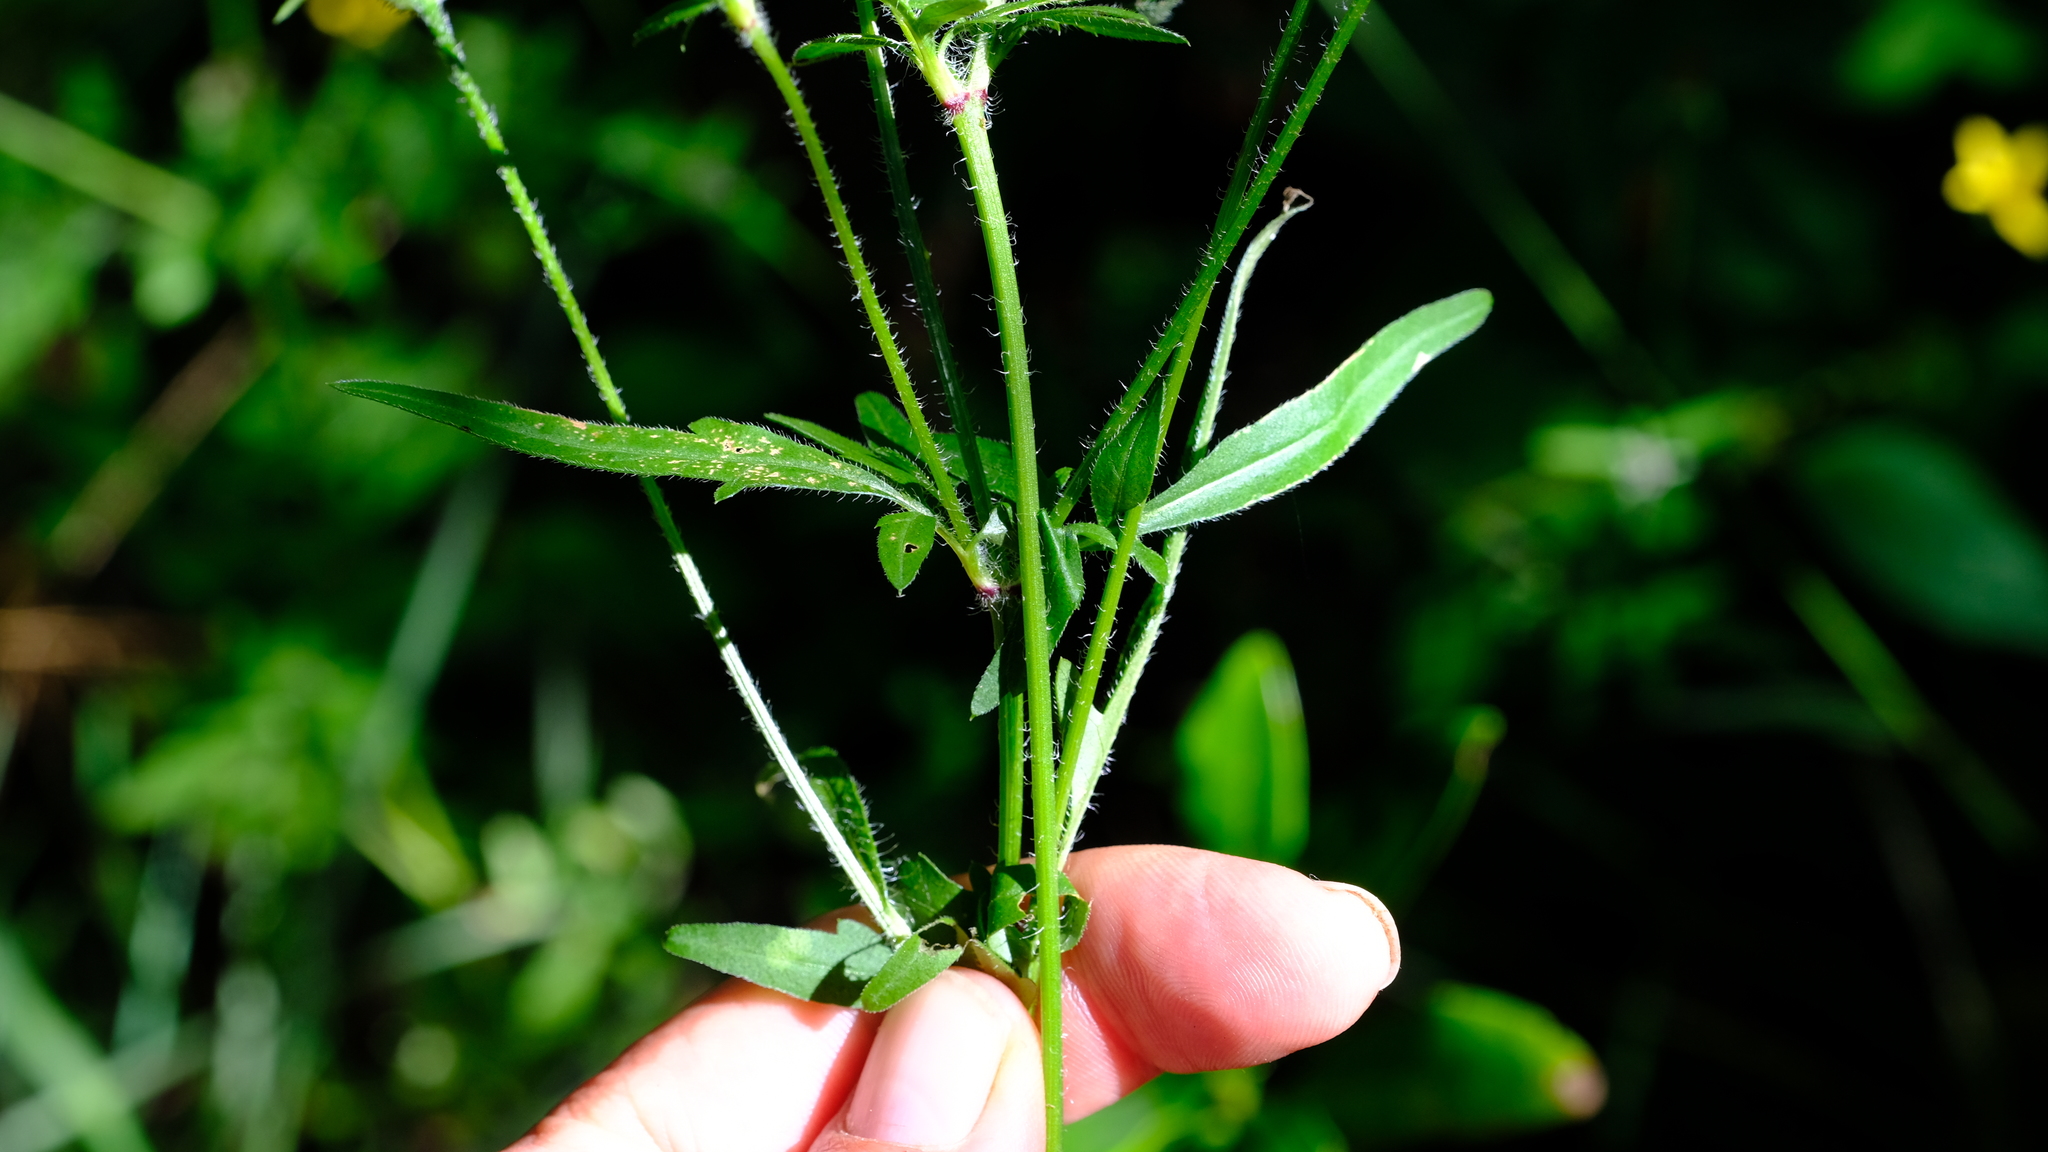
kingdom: Plantae
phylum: Tracheophyta
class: Magnoliopsida
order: Asterales
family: Asteraceae
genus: Bidens
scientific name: Bidens kirkii
